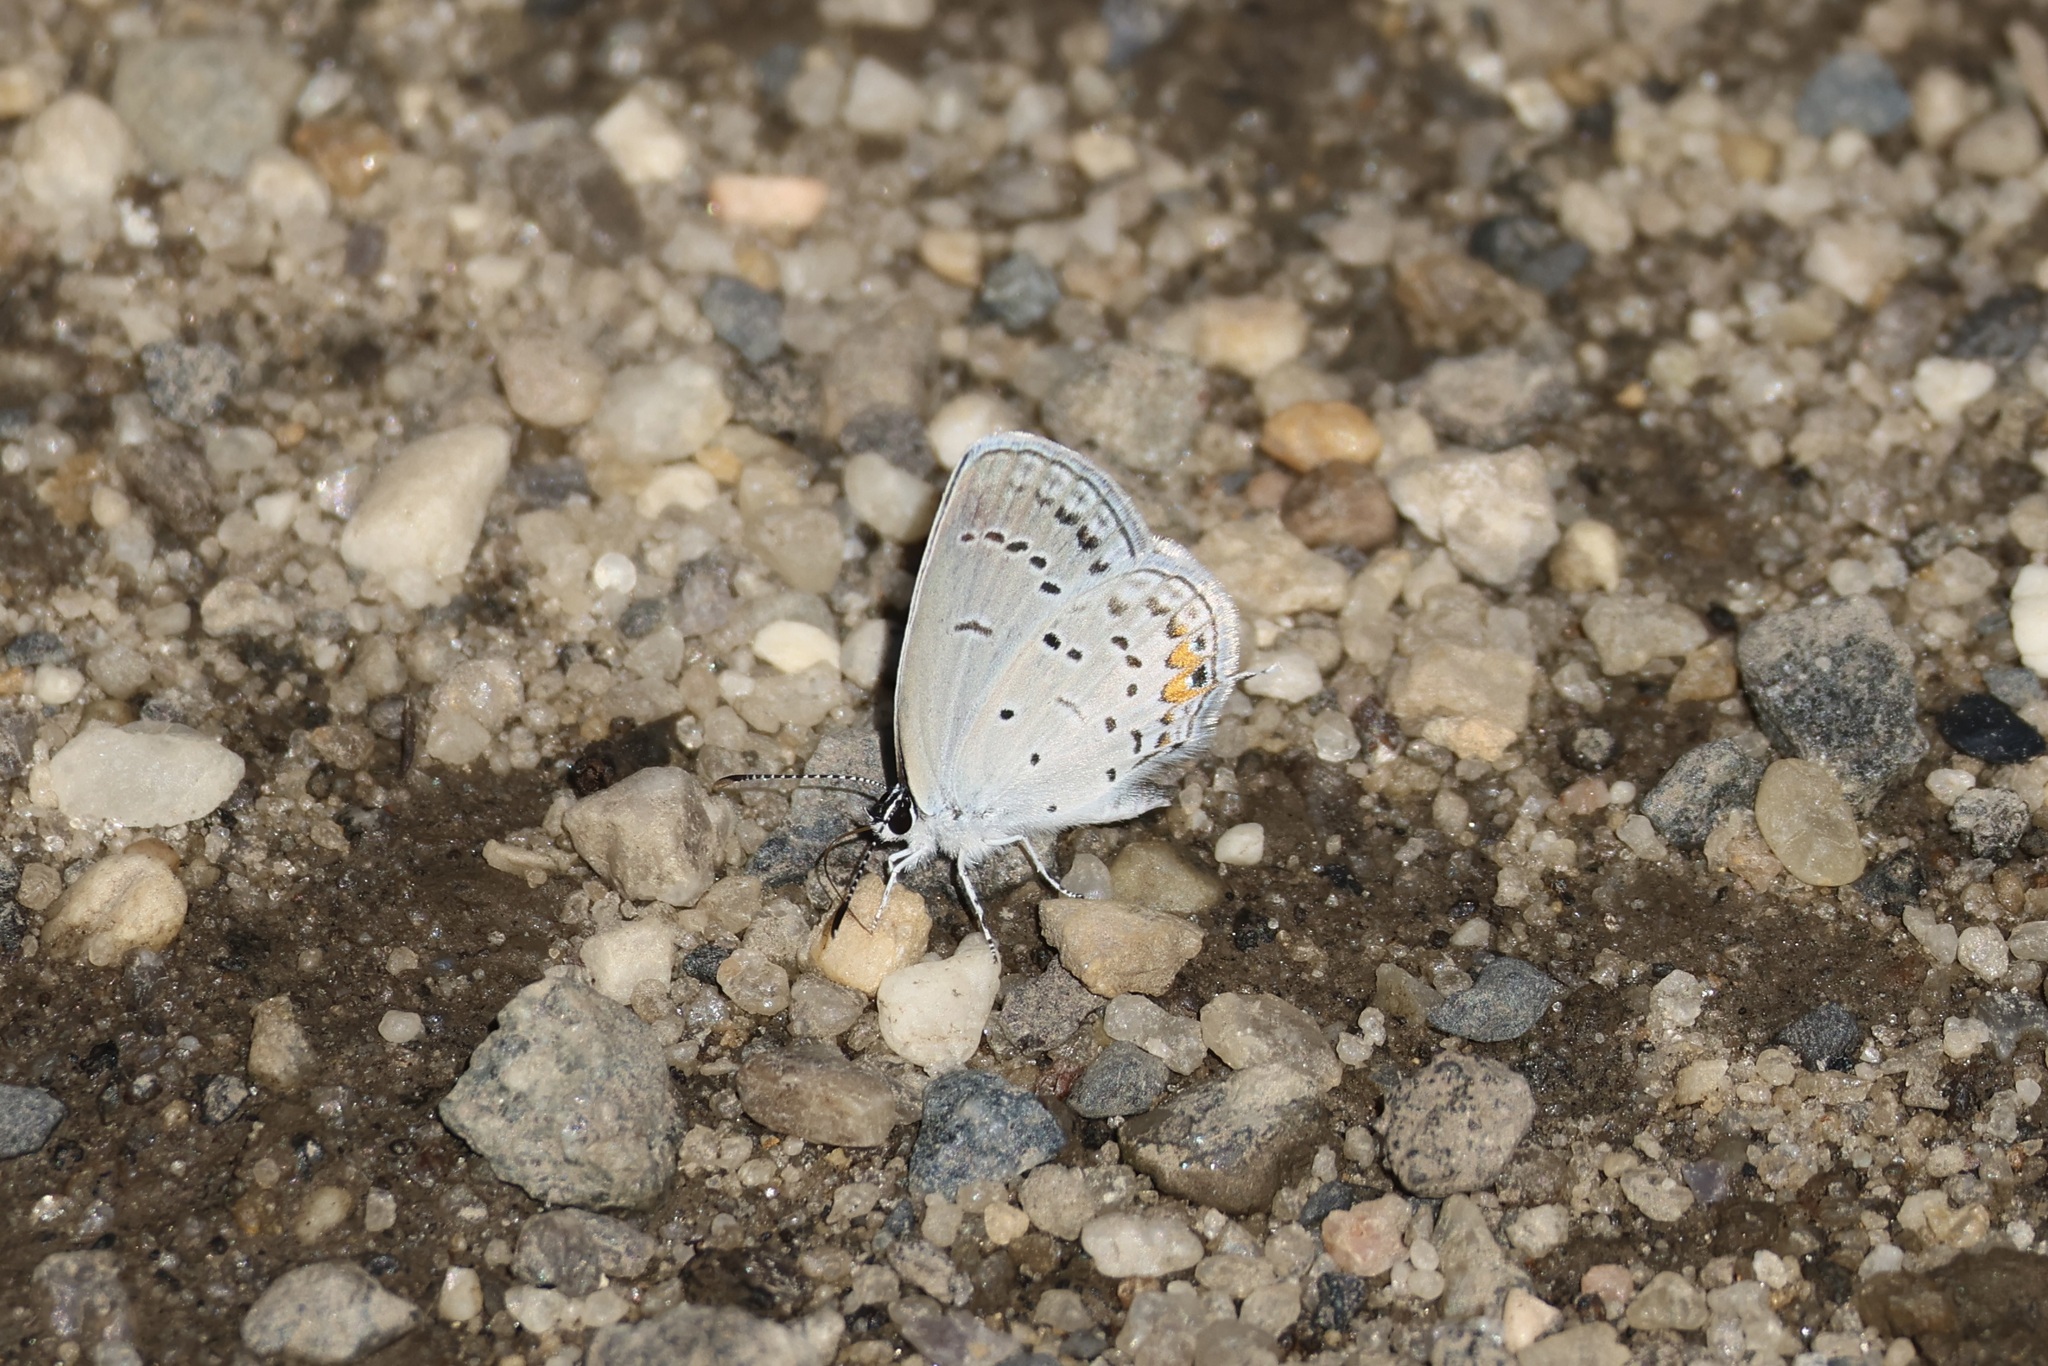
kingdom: Animalia
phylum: Arthropoda
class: Insecta
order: Lepidoptera
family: Lycaenidae
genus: Elkalyce
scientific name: Elkalyce comyntas
